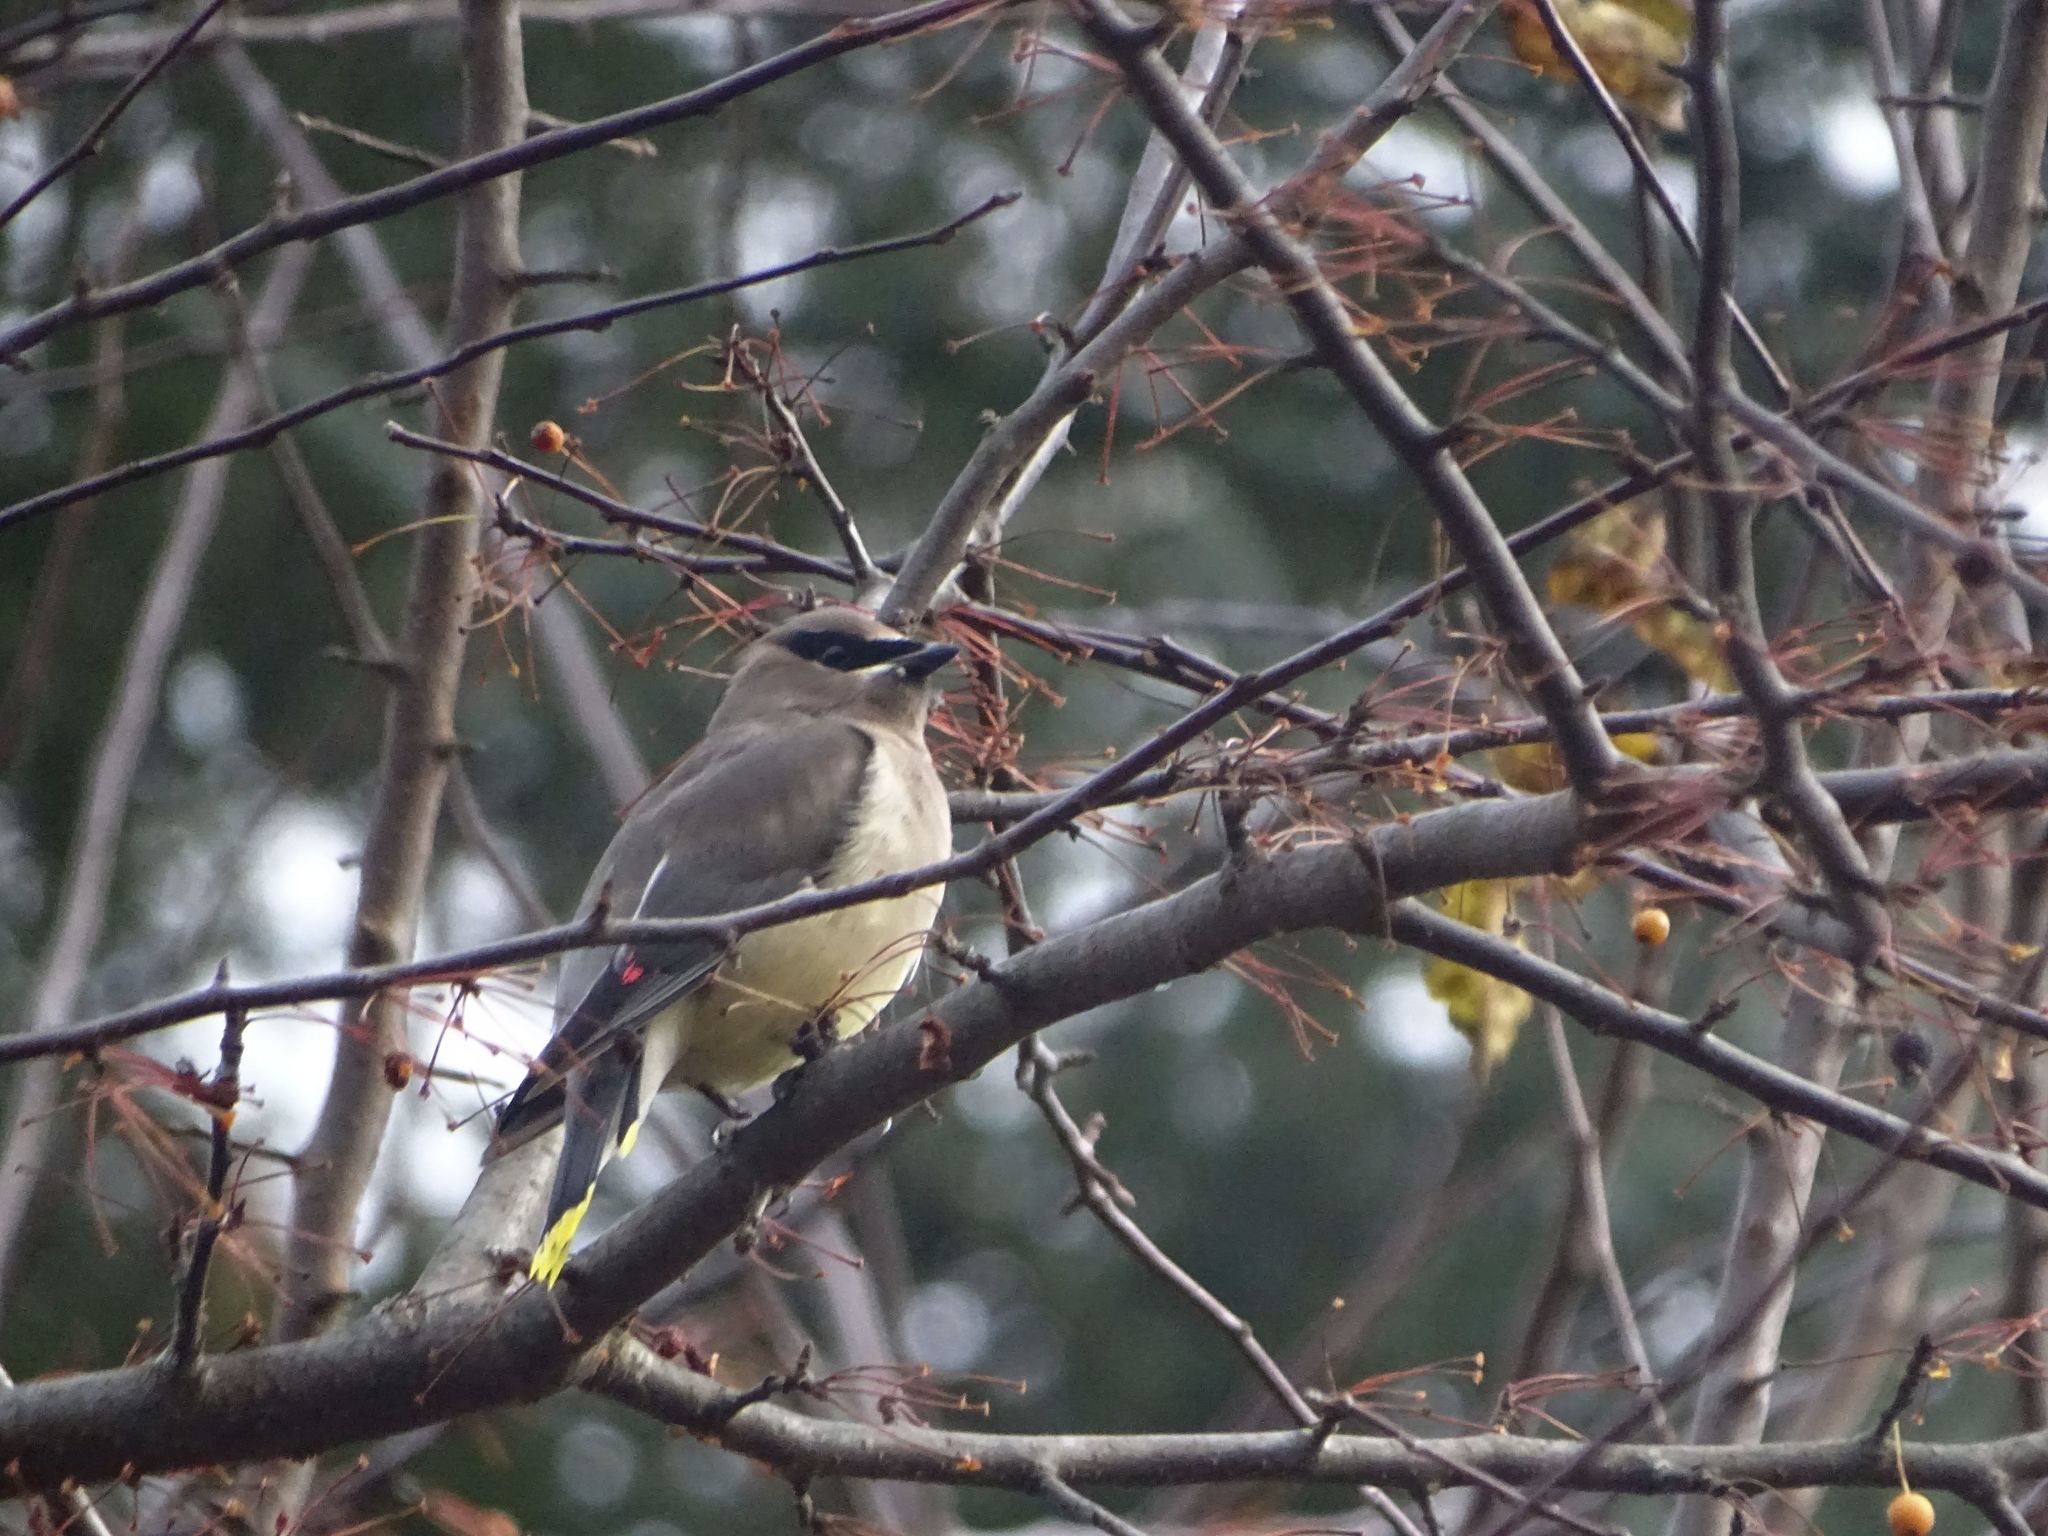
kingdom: Animalia
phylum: Chordata
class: Aves
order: Passeriformes
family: Bombycillidae
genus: Bombycilla
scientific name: Bombycilla cedrorum
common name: Cedar waxwing
